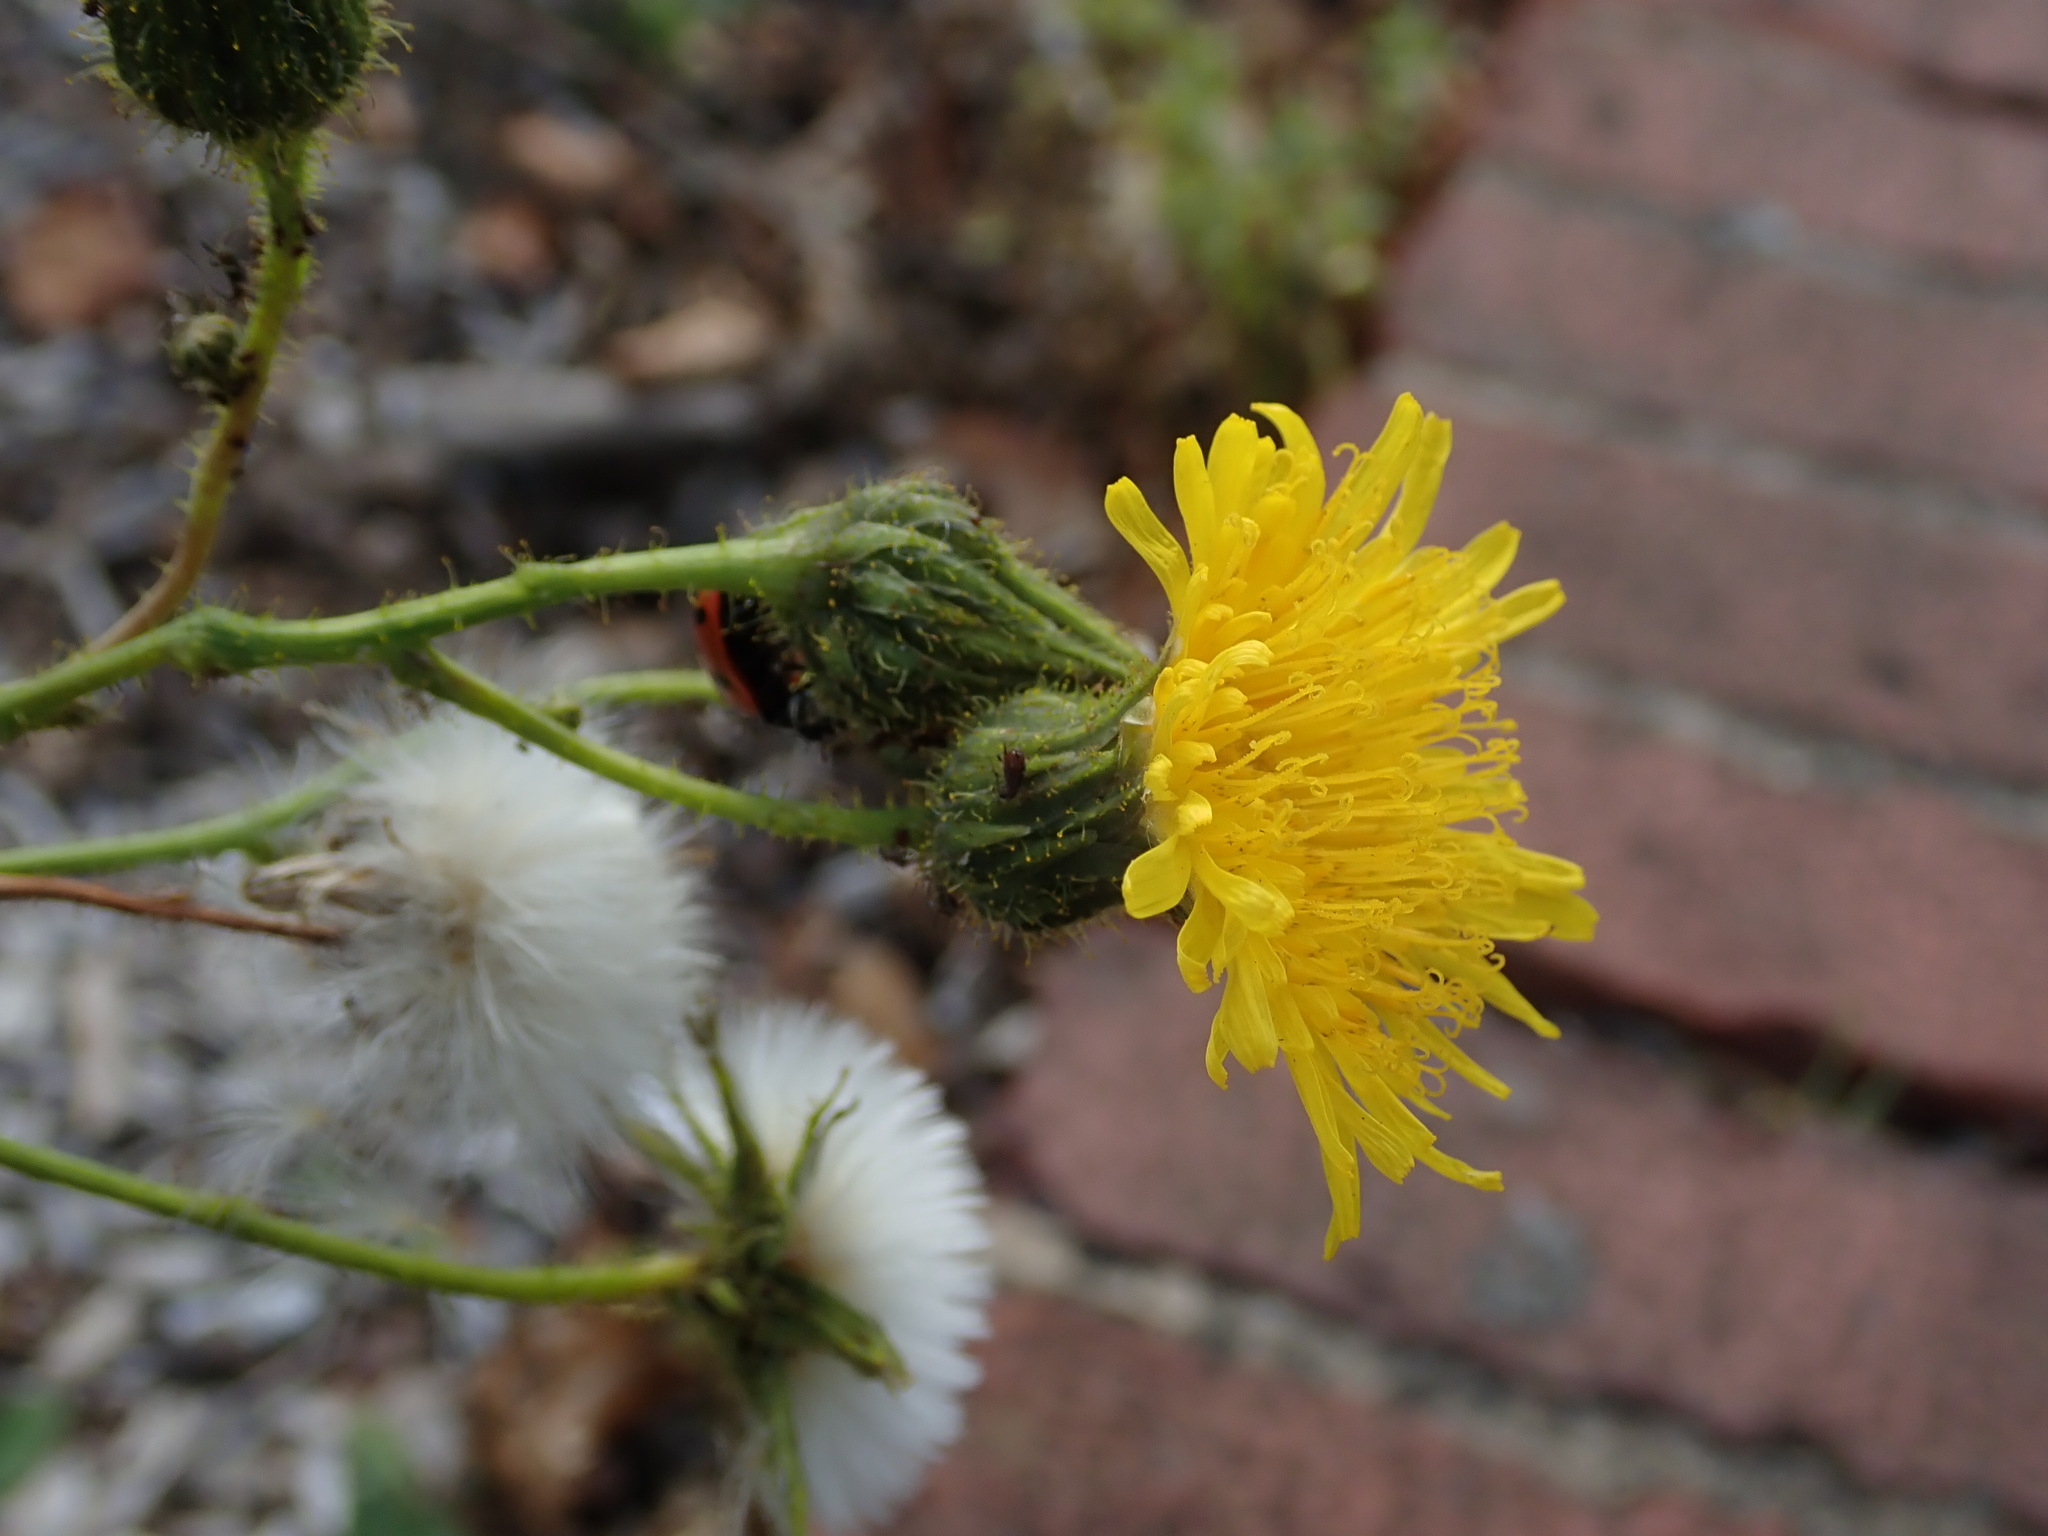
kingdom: Plantae
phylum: Tracheophyta
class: Magnoliopsida
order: Asterales
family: Asteraceae
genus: Sonchus
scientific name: Sonchus arvensis
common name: Perennial sow-thistle
